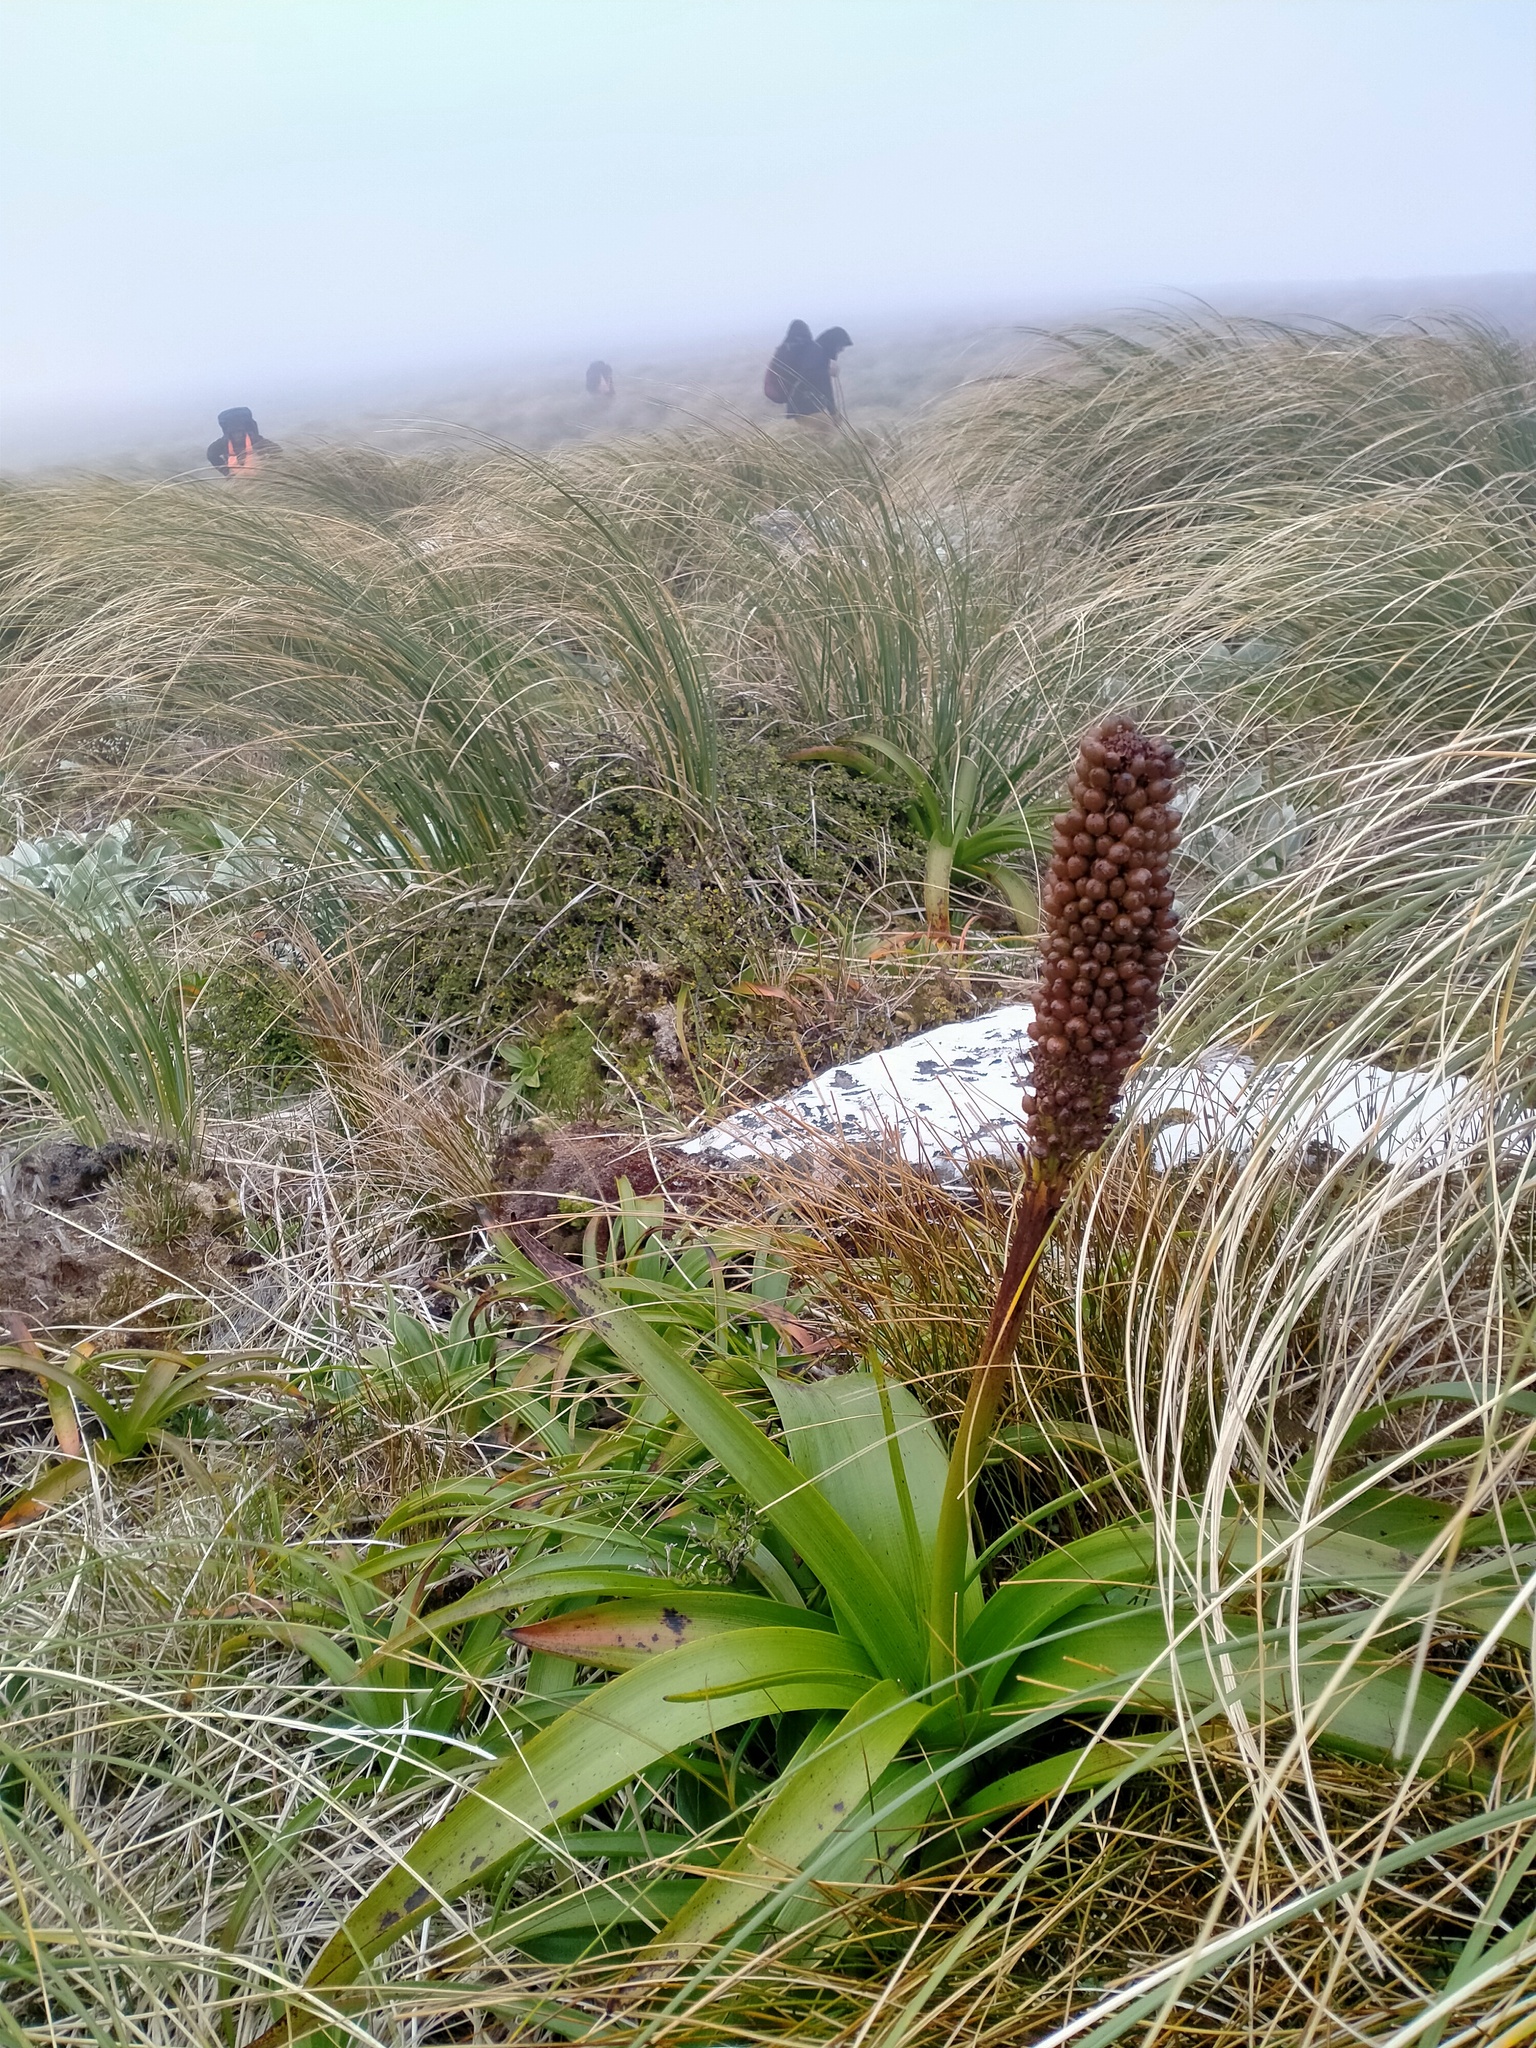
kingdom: Plantae
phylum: Tracheophyta
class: Liliopsida
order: Asparagales
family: Asphodelaceae
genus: Bulbinella
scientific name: Bulbinella rossii
